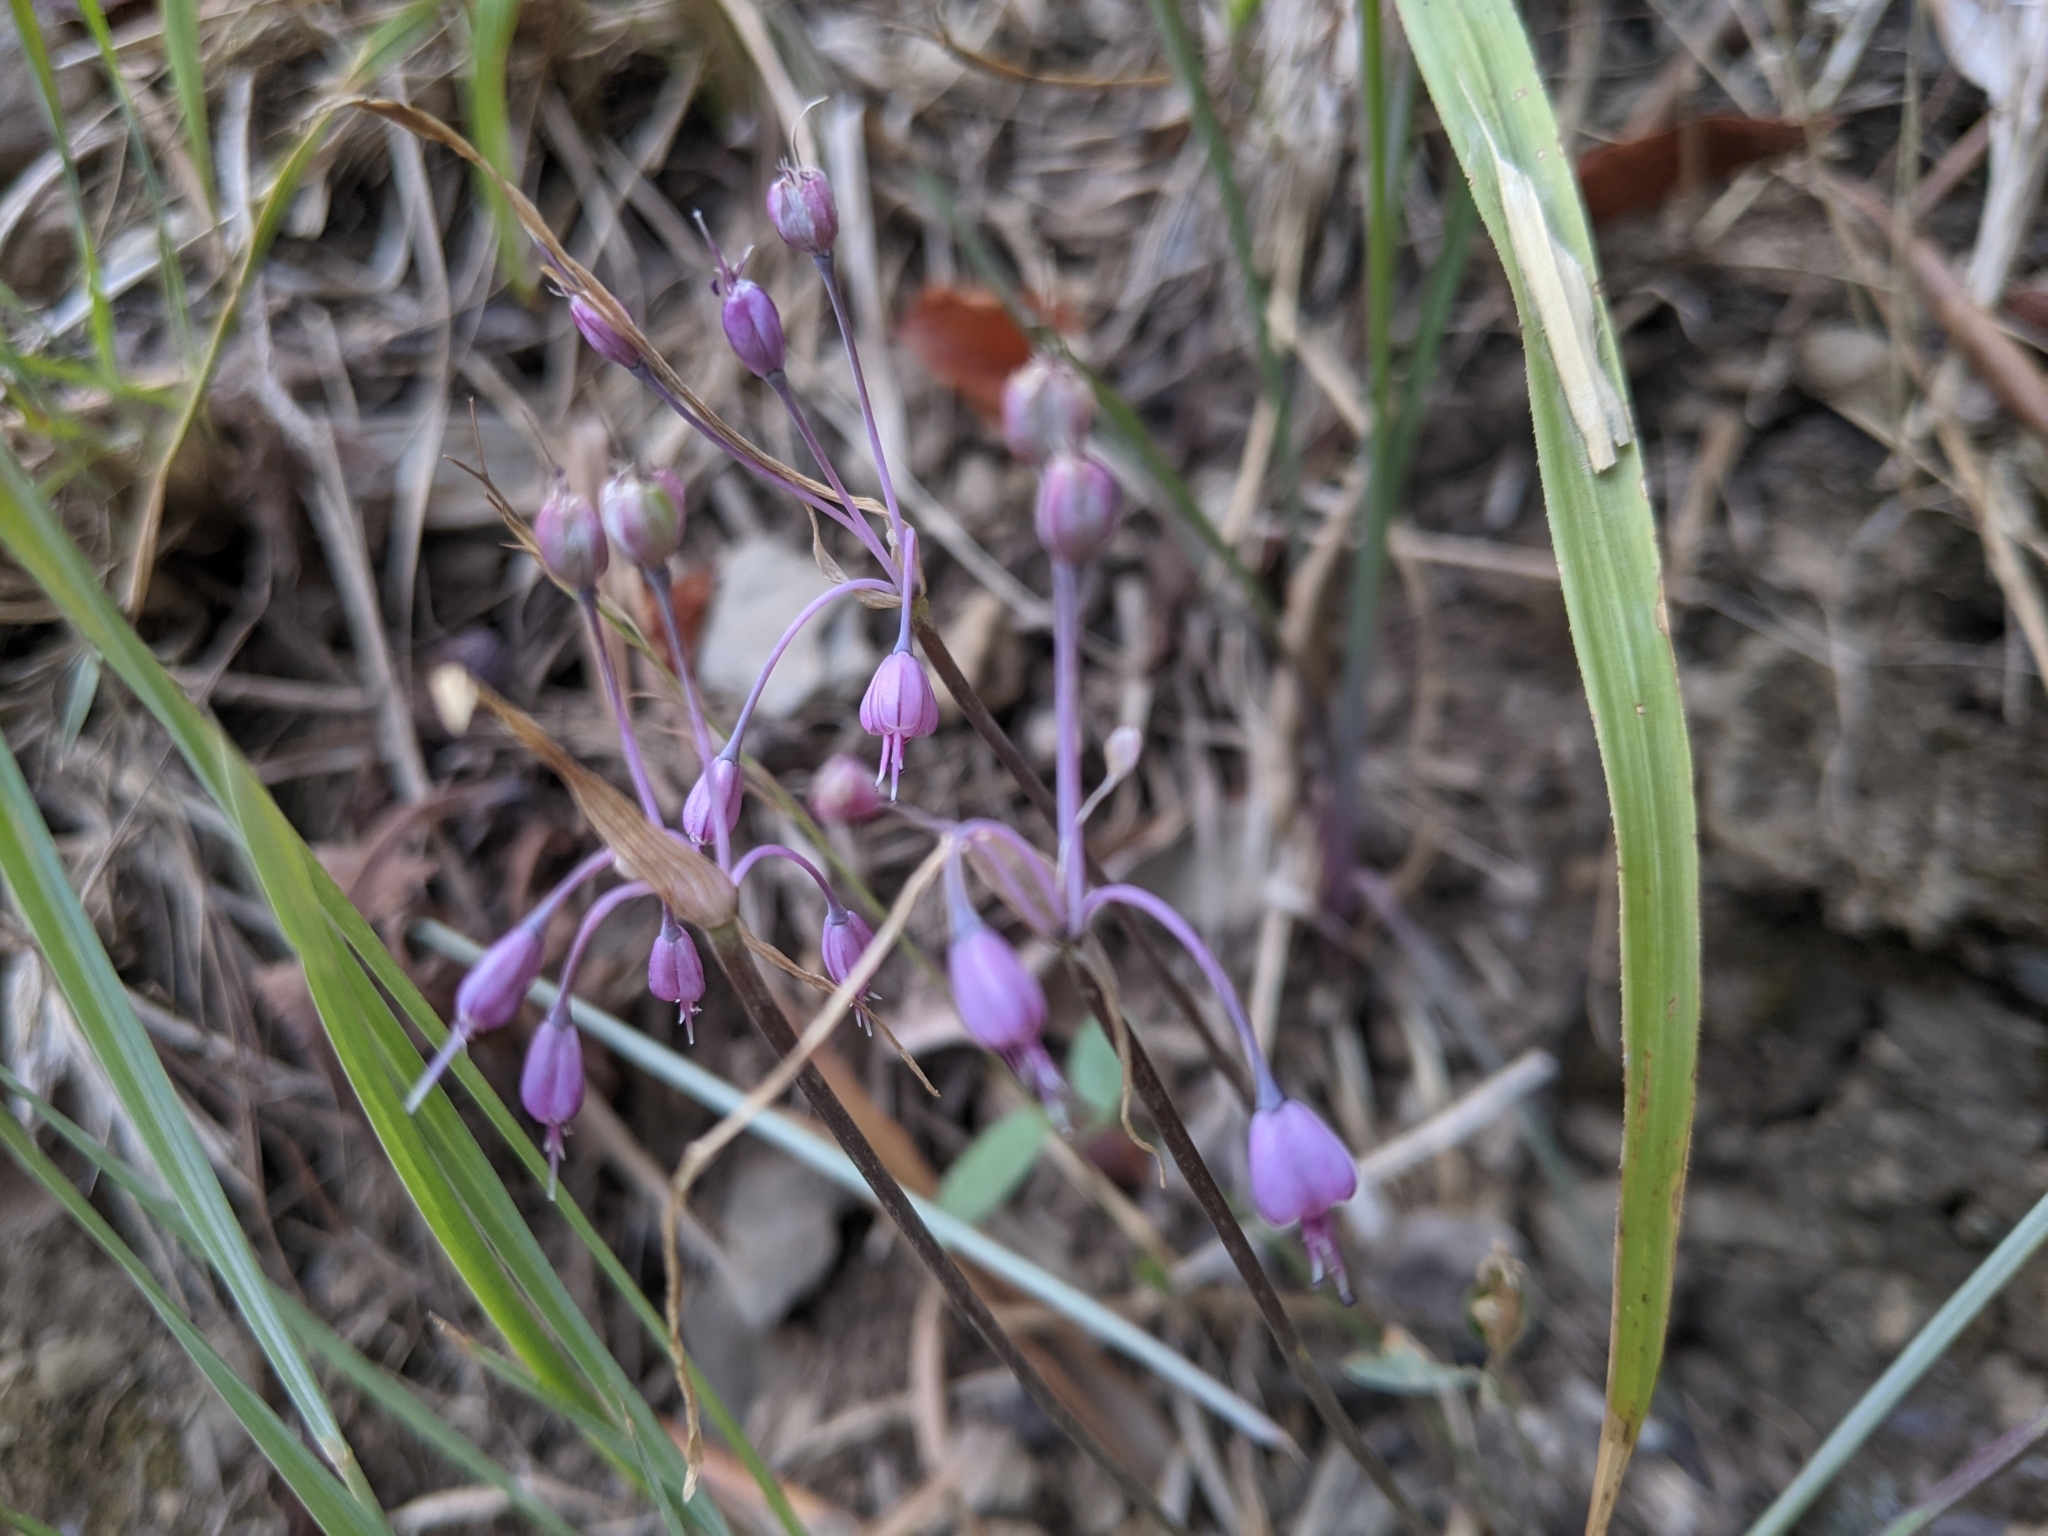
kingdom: Plantae
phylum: Tracheophyta
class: Liliopsida
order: Asparagales
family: Amaryllidaceae
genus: Allium
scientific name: Allium carinatum
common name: Keeled garlic
